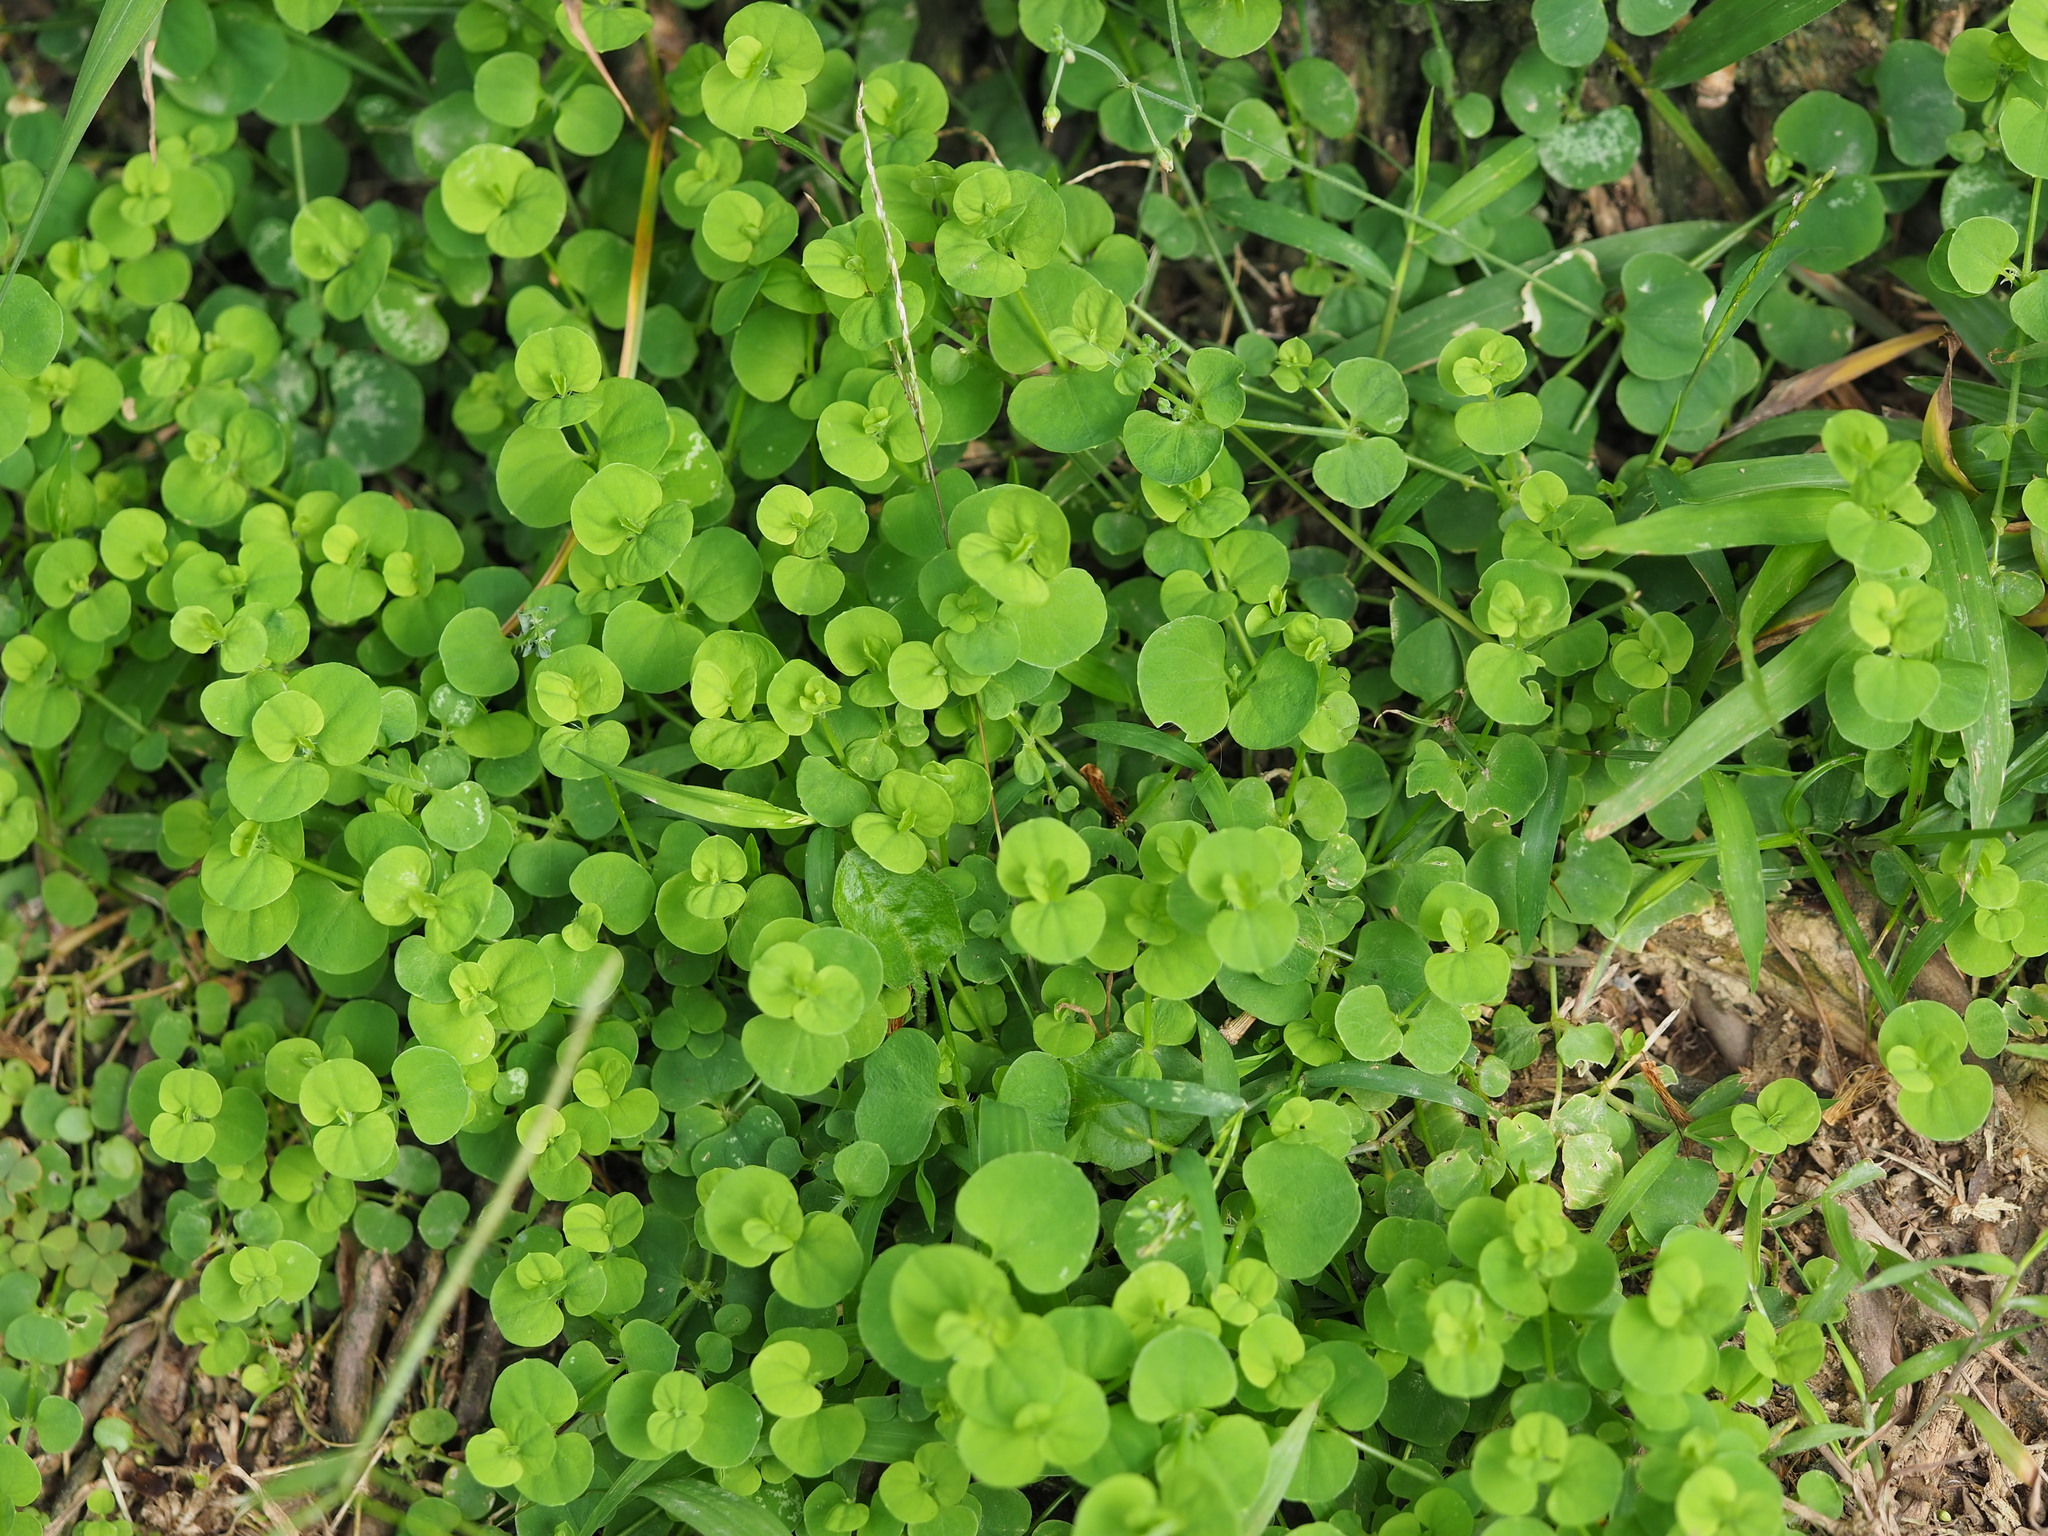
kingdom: Plantae
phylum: Tracheophyta
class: Magnoliopsida
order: Caryophyllales
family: Caryophyllaceae
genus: Drymaria
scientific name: Drymaria cordata
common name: Whitesnow
